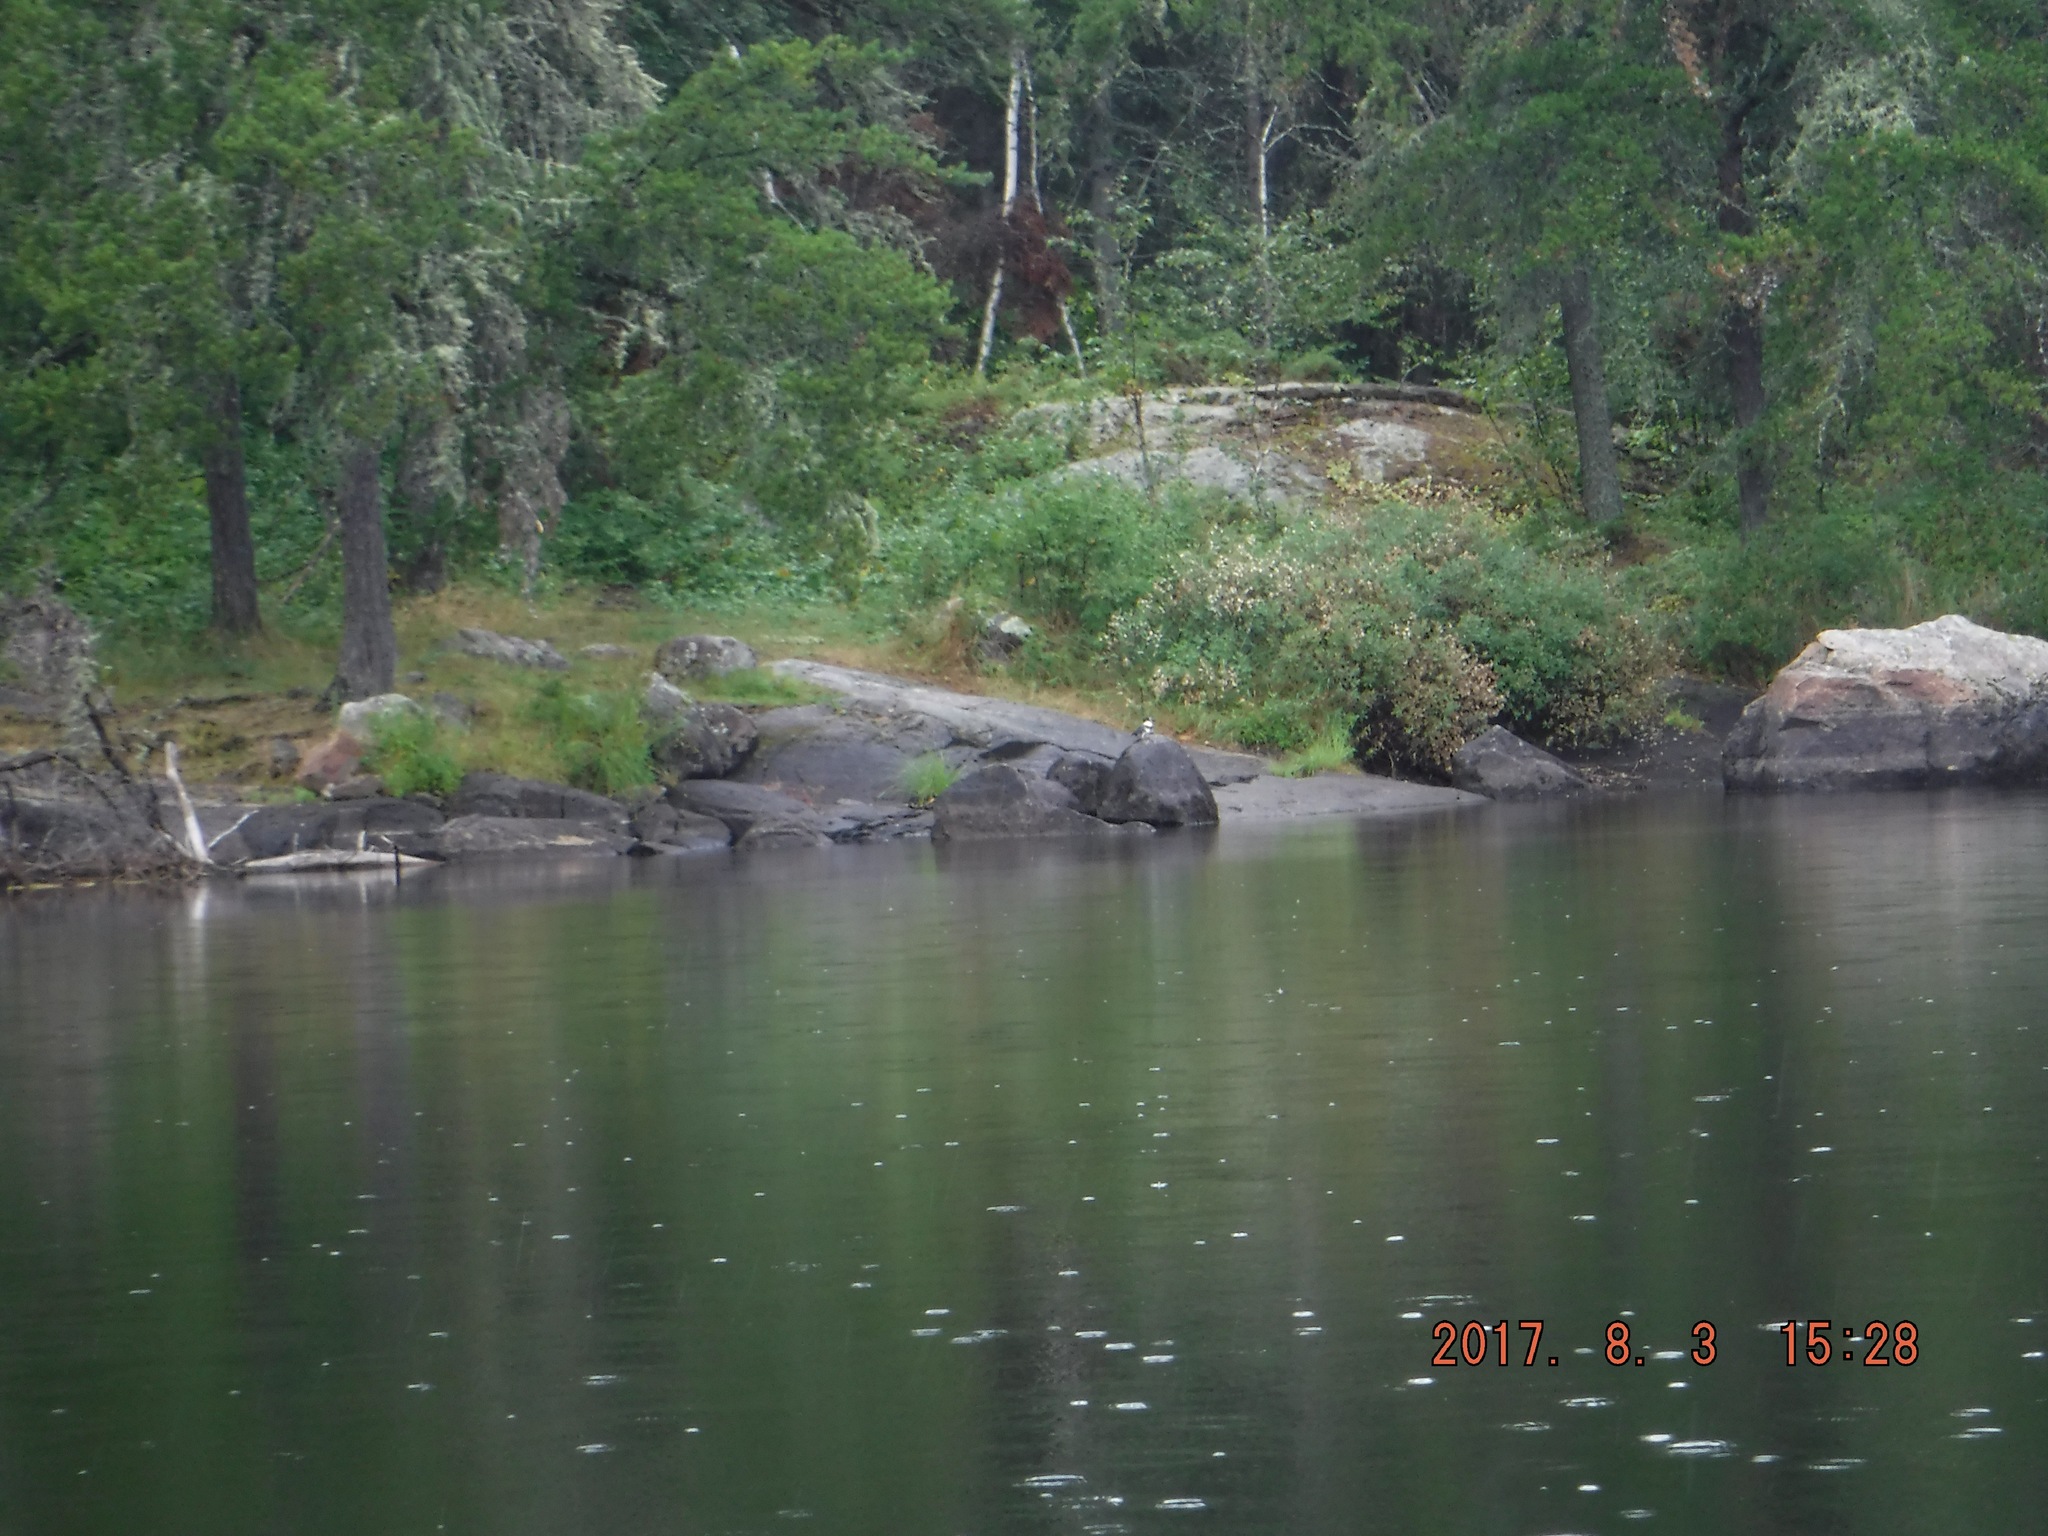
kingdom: Animalia
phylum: Chordata
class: Aves
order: Coraciiformes
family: Alcedinidae
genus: Megaceryle
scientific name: Megaceryle alcyon
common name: Belted kingfisher
